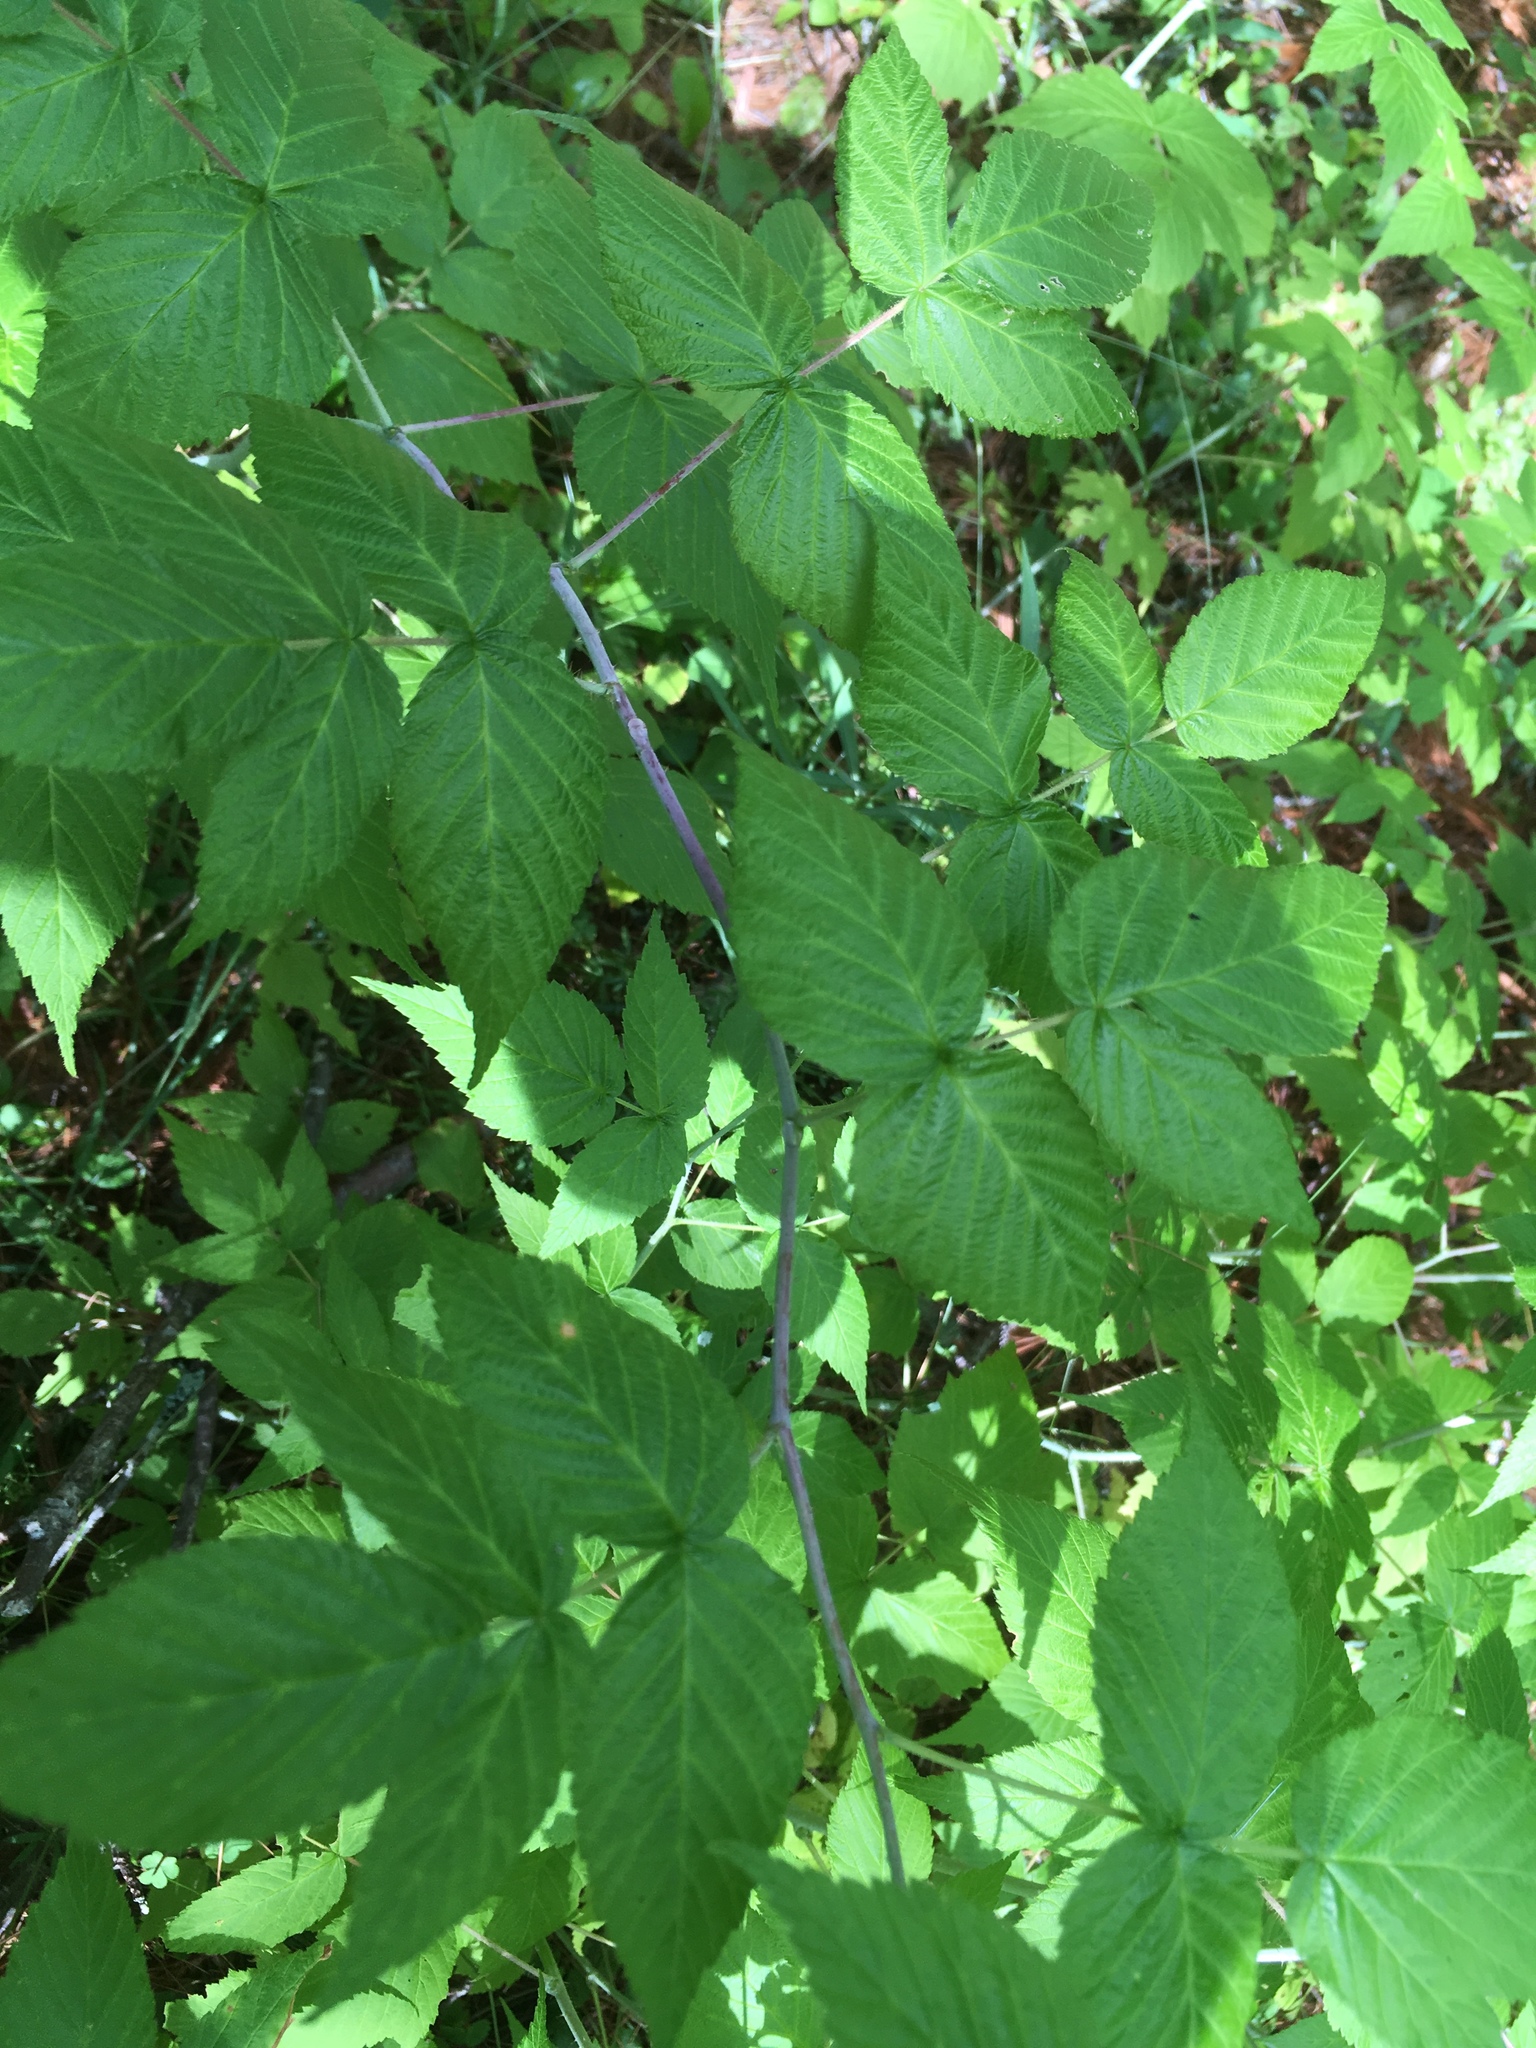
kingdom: Plantae
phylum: Tracheophyta
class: Magnoliopsida
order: Rosales
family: Rosaceae
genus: Rubus
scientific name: Rubus occidentalis
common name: Black raspberry
